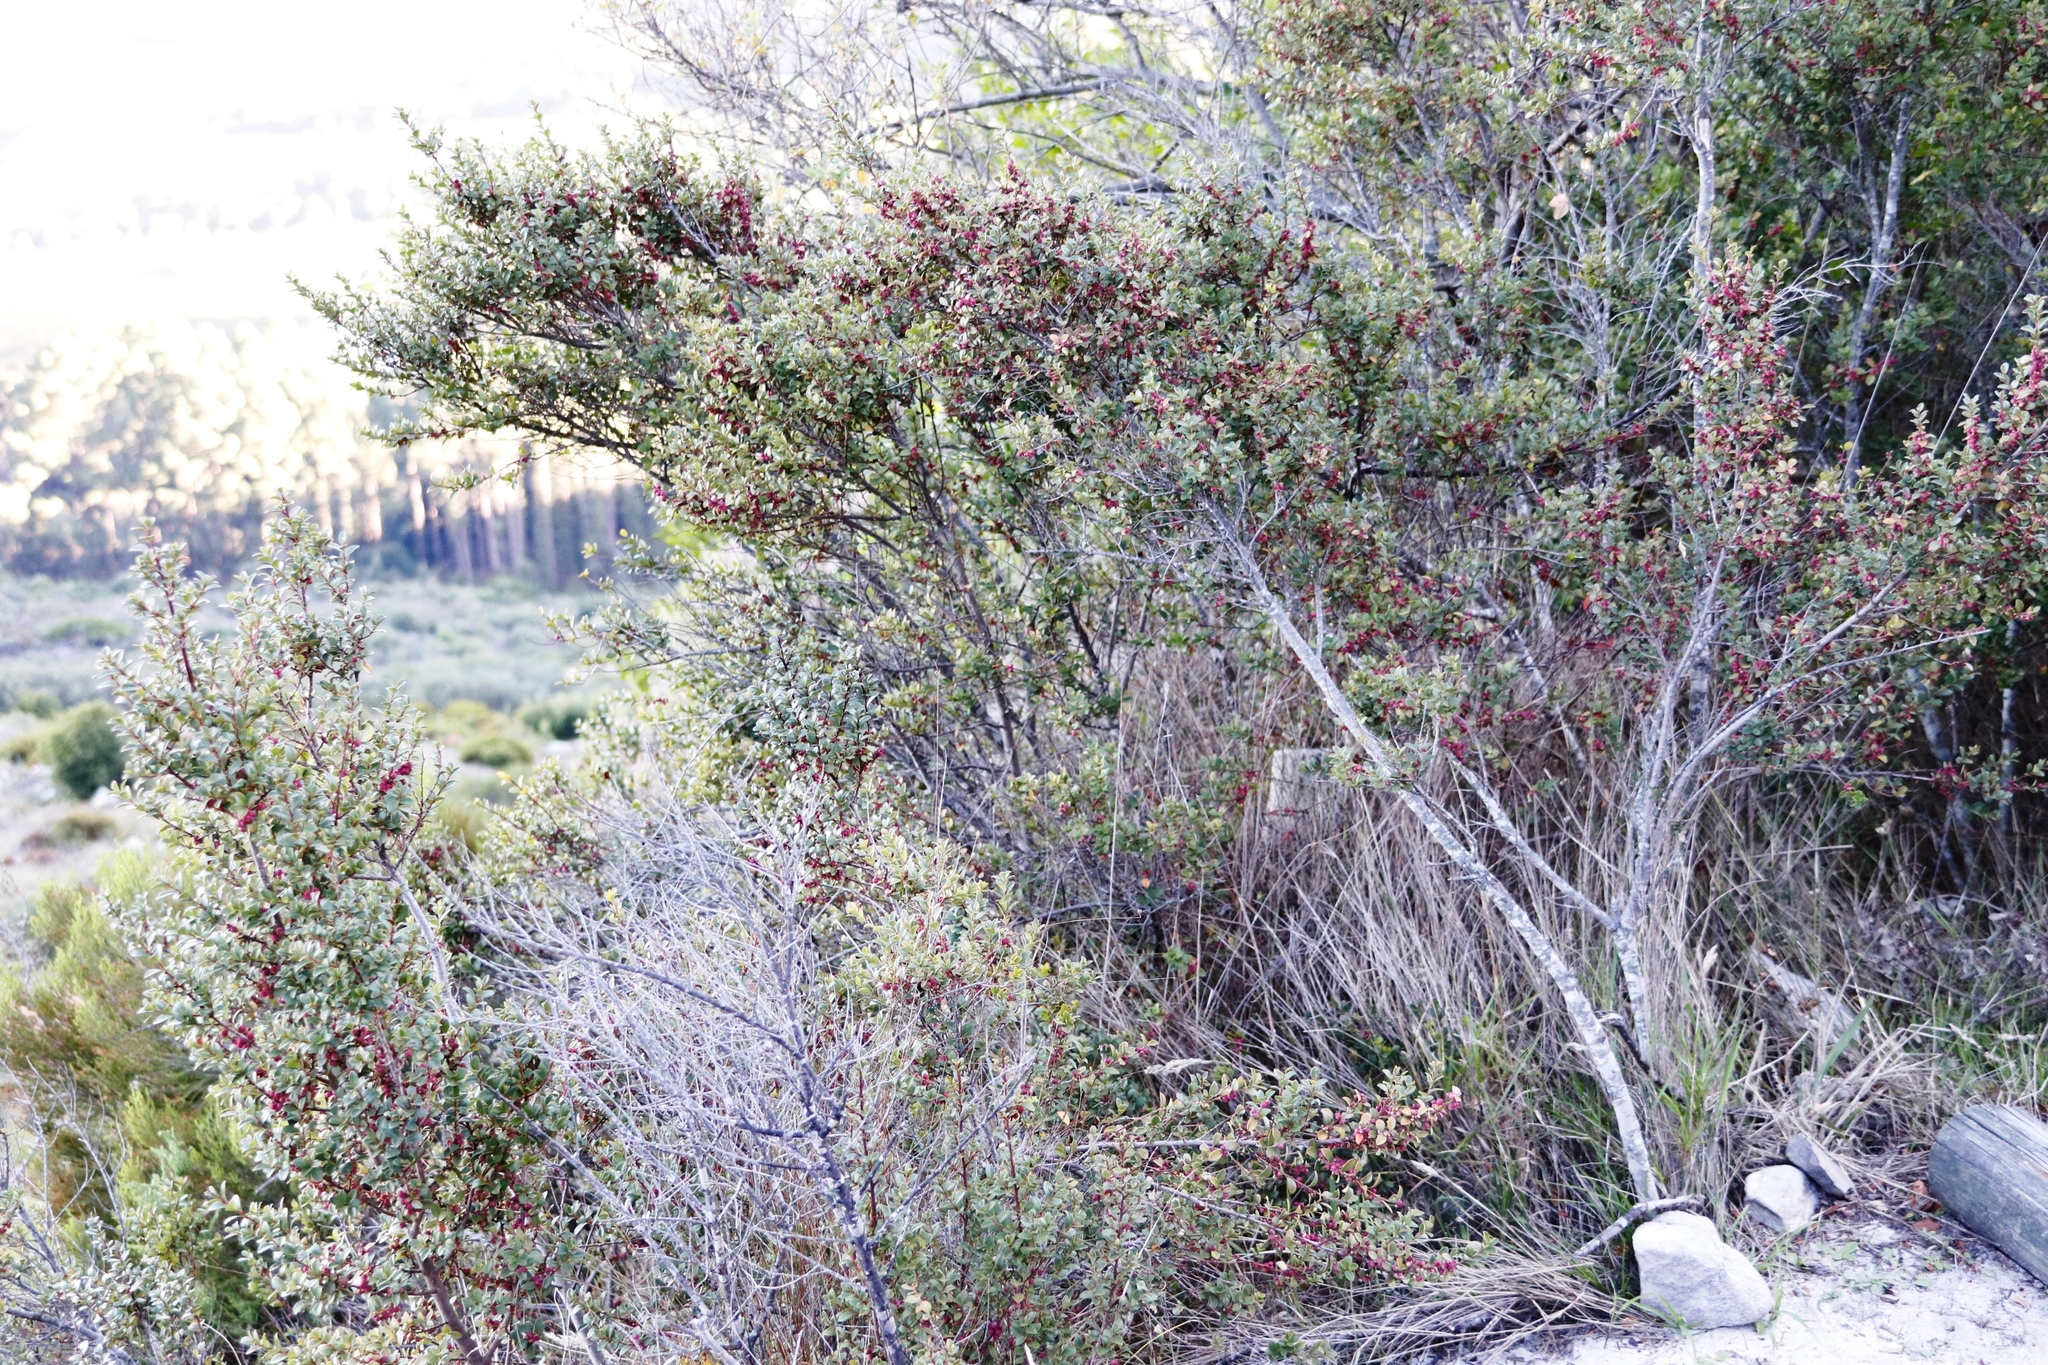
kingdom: Plantae
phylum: Tracheophyta
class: Magnoliopsida
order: Ericales
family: Primulaceae
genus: Myrsine
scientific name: Myrsine africana
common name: African-boxwood
